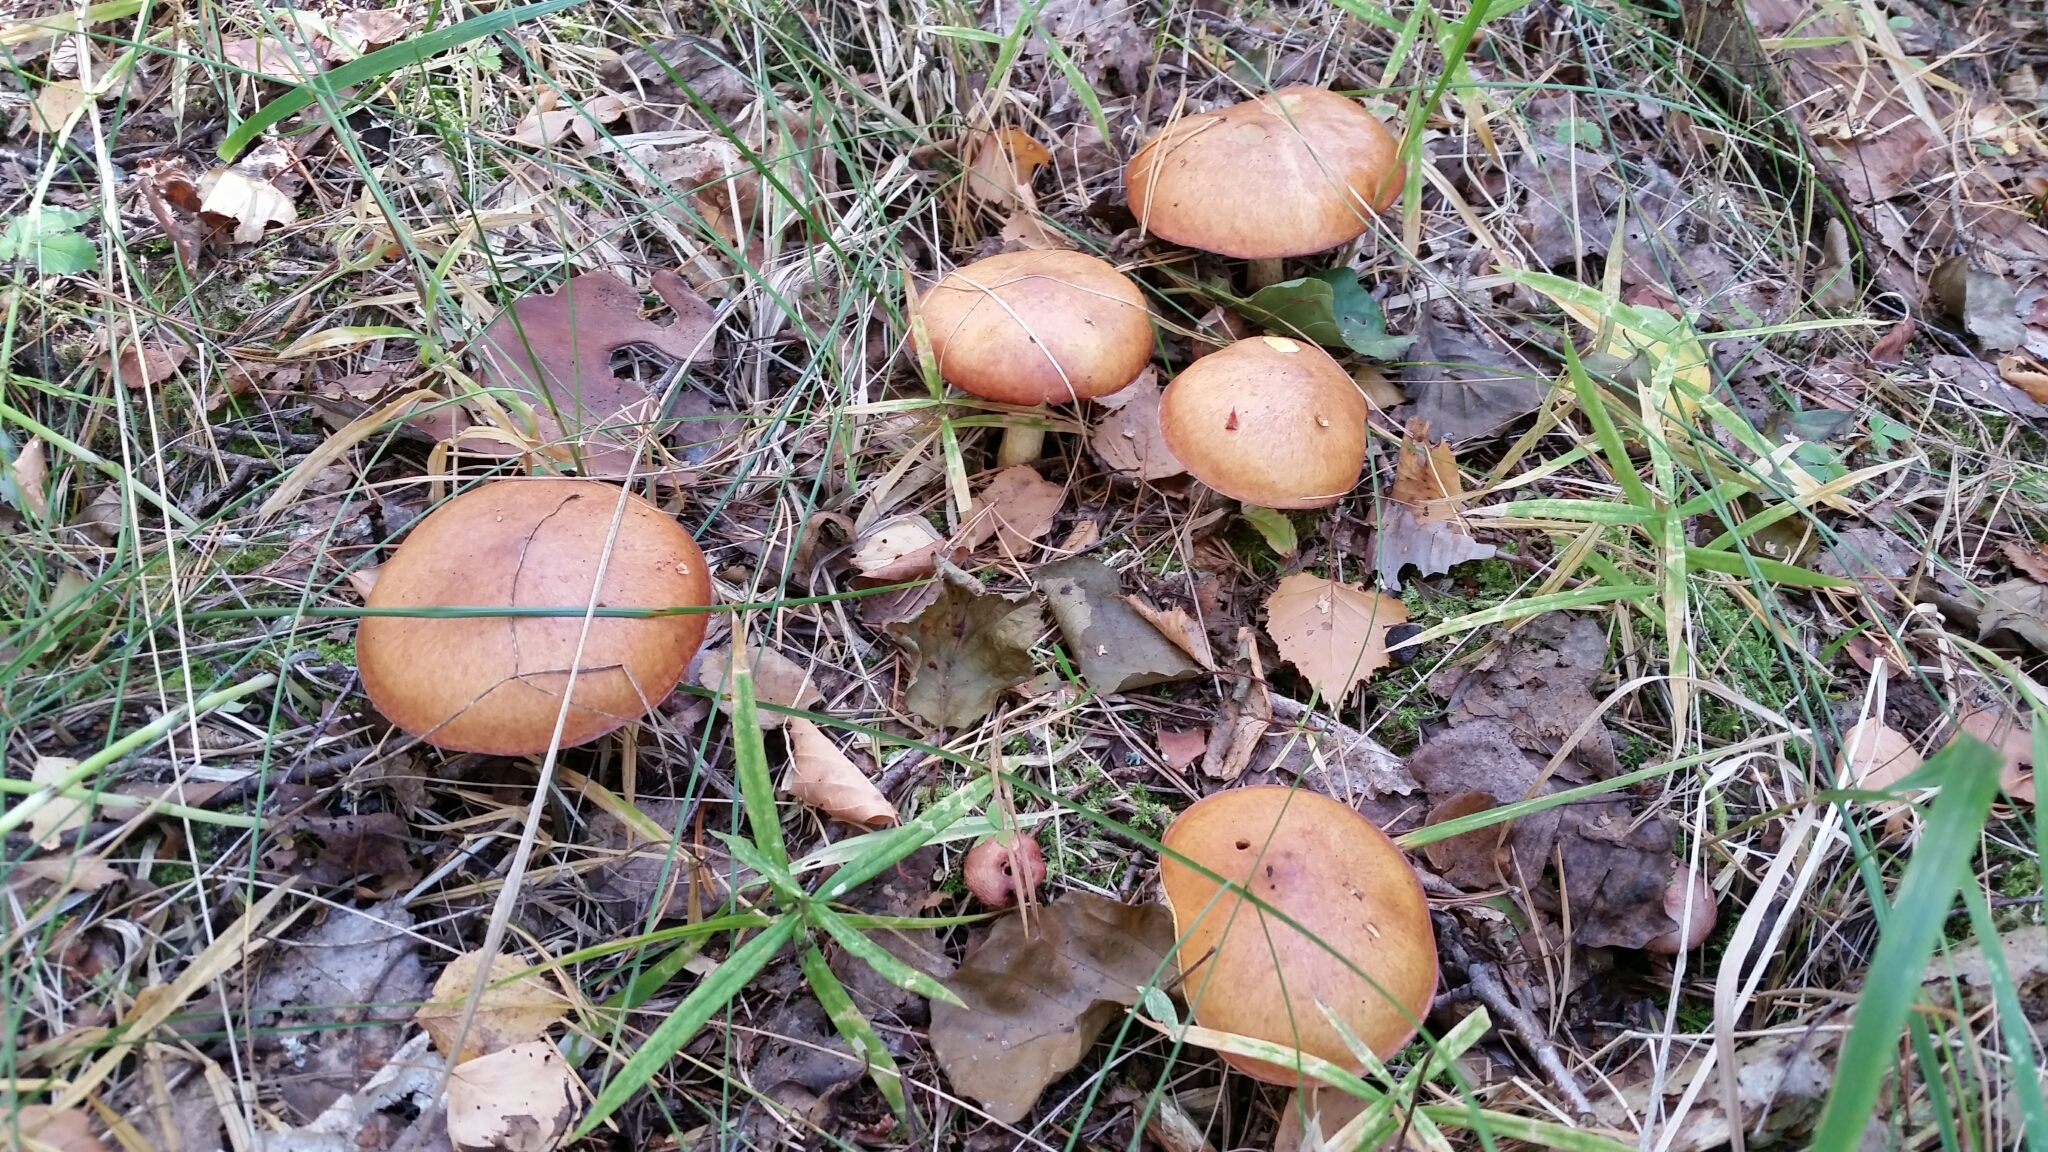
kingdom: Fungi
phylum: Basidiomycota
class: Agaricomycetes
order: Boletales
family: Suillaceae
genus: Suillus
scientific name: Suillus granulatus
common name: Weeping bolete
